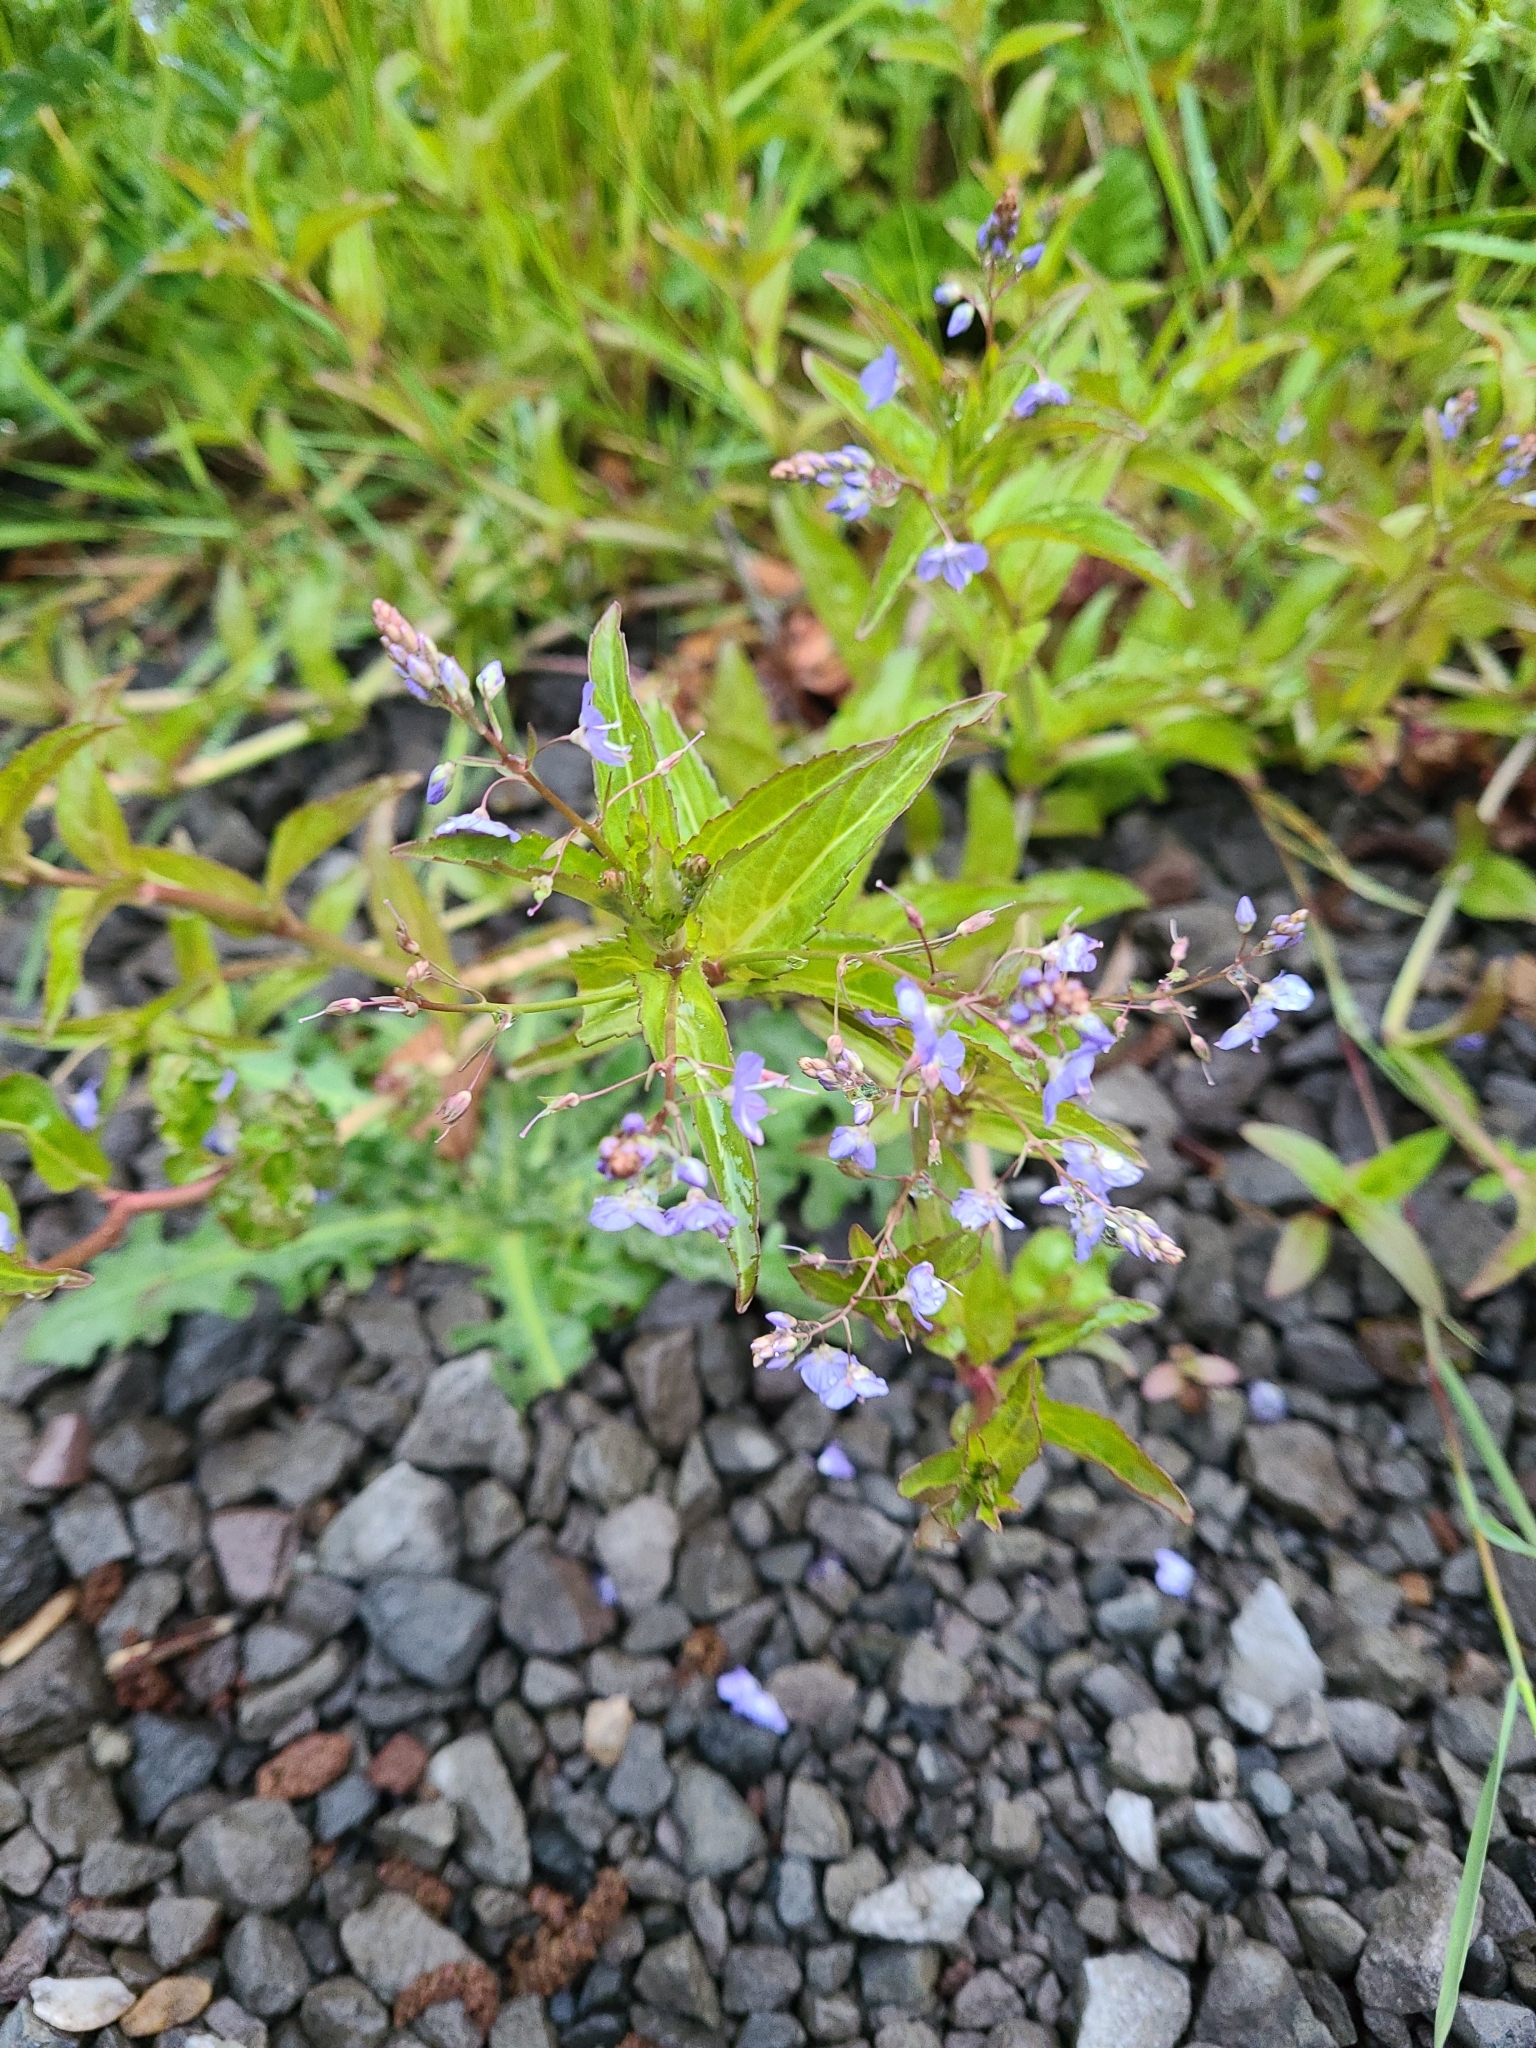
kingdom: Plantae
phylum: Tracheophyta
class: Magnoliopsida
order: Lamiales
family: Plantaginaceae
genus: Veronica
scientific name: Veronica americana
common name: American brooklime
